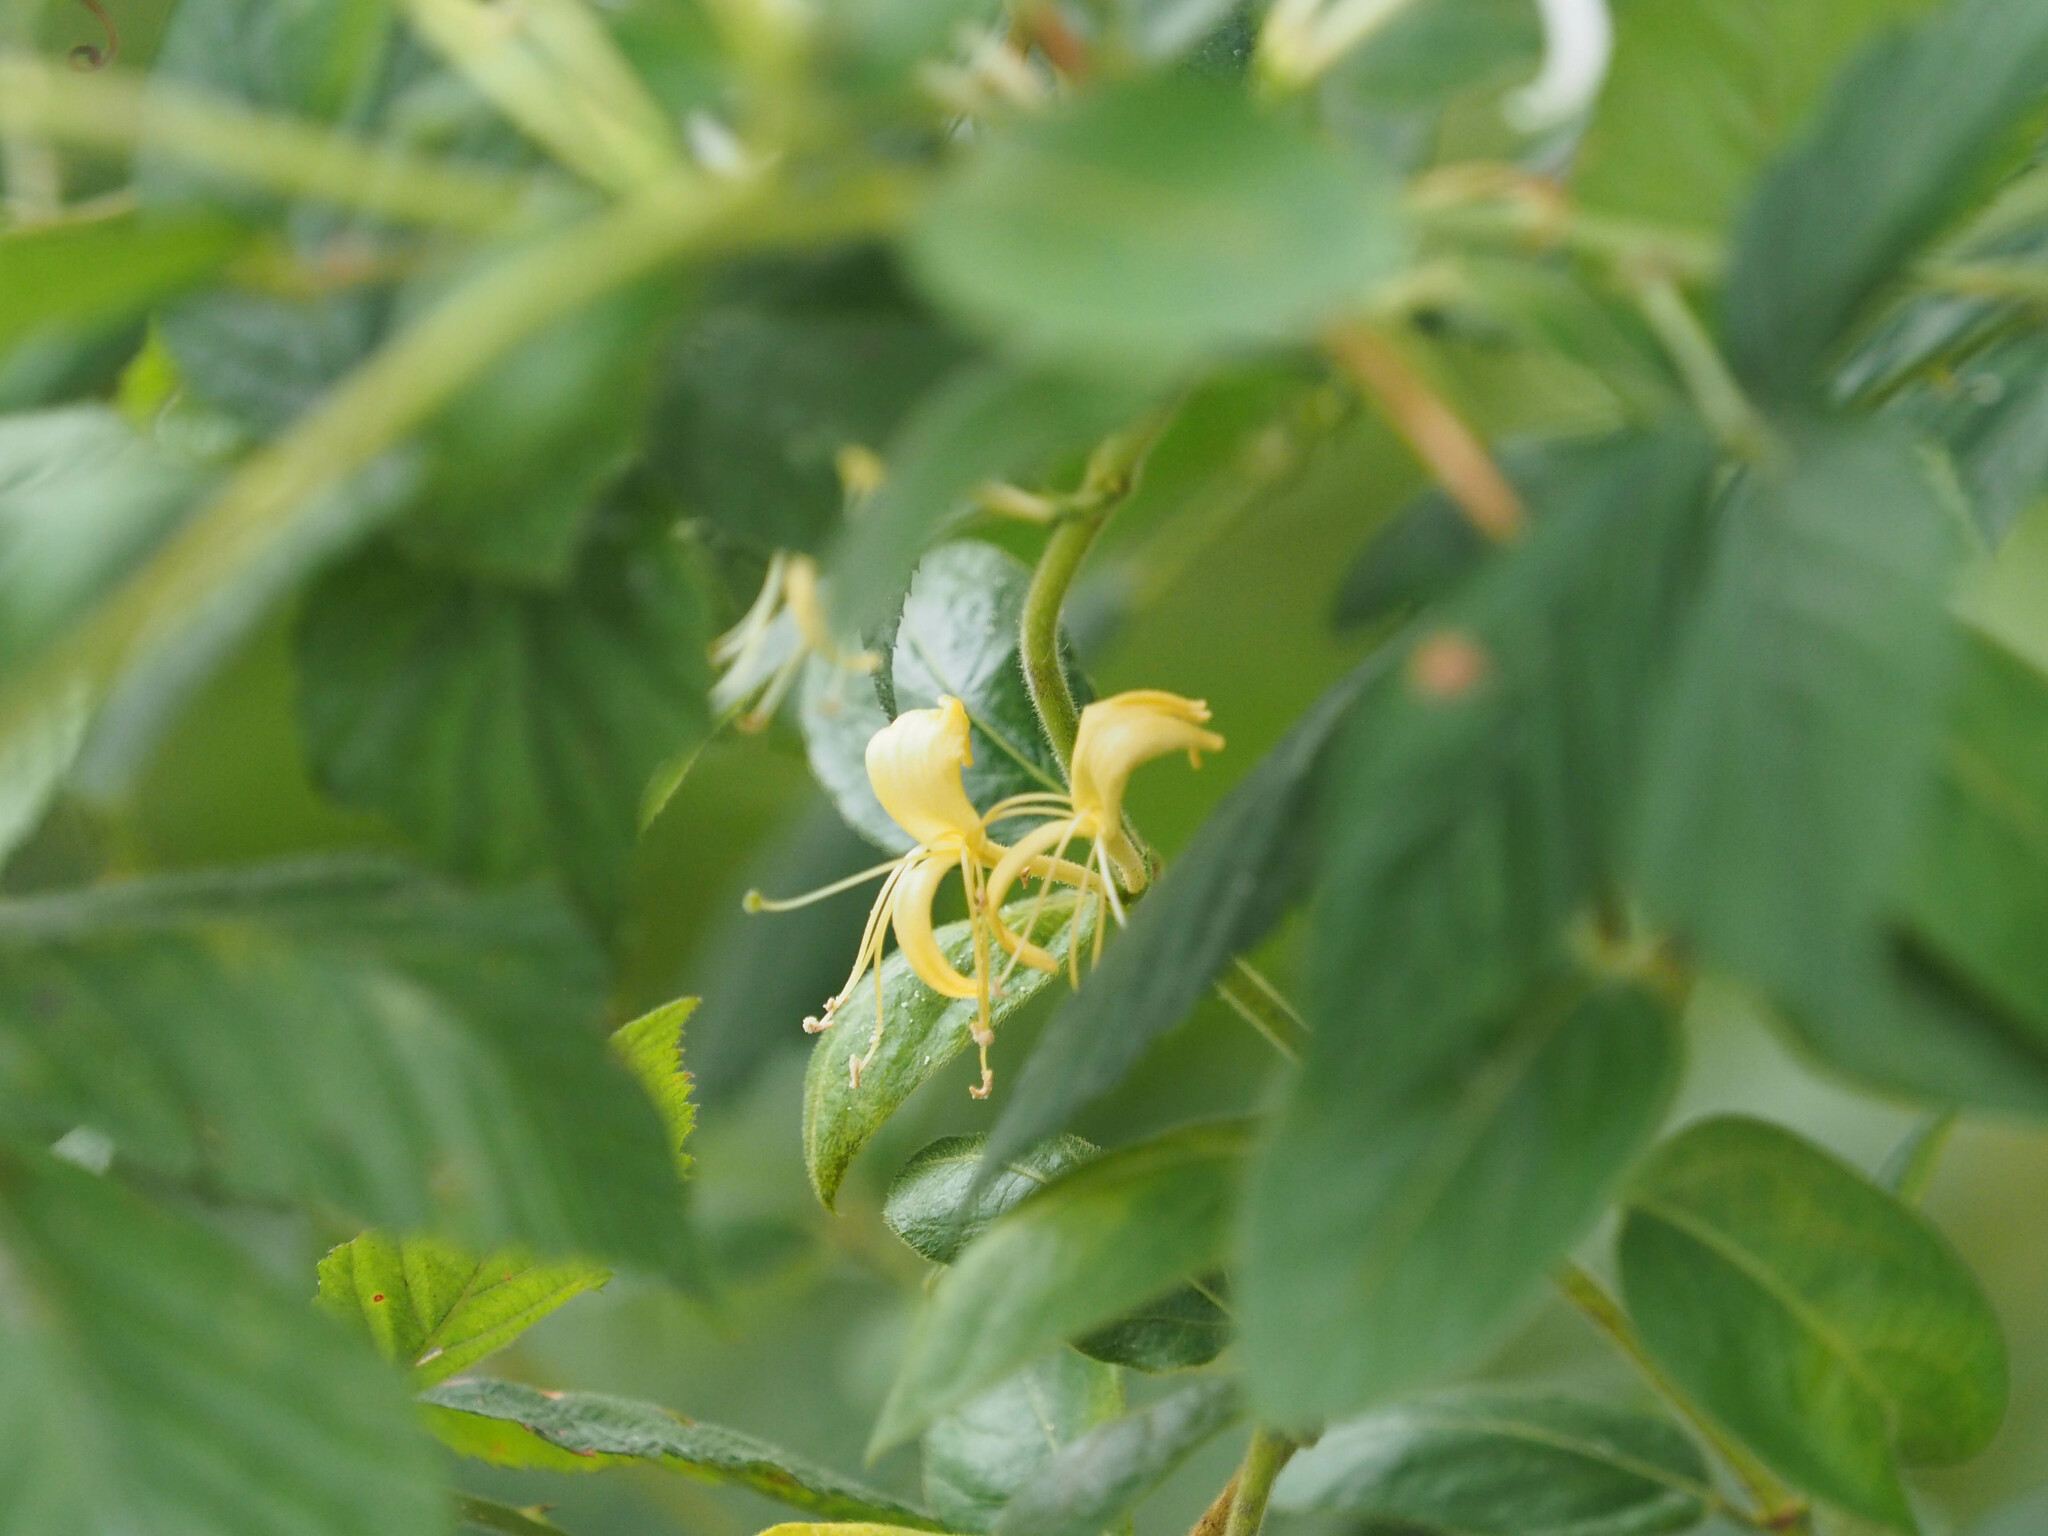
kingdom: Plantae
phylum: Tracheophyta
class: Magnoliopsida
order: Dipsacales
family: Caprifoliaceae
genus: Lonicera
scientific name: Lonicera japonica
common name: Japanese honeysuckle
